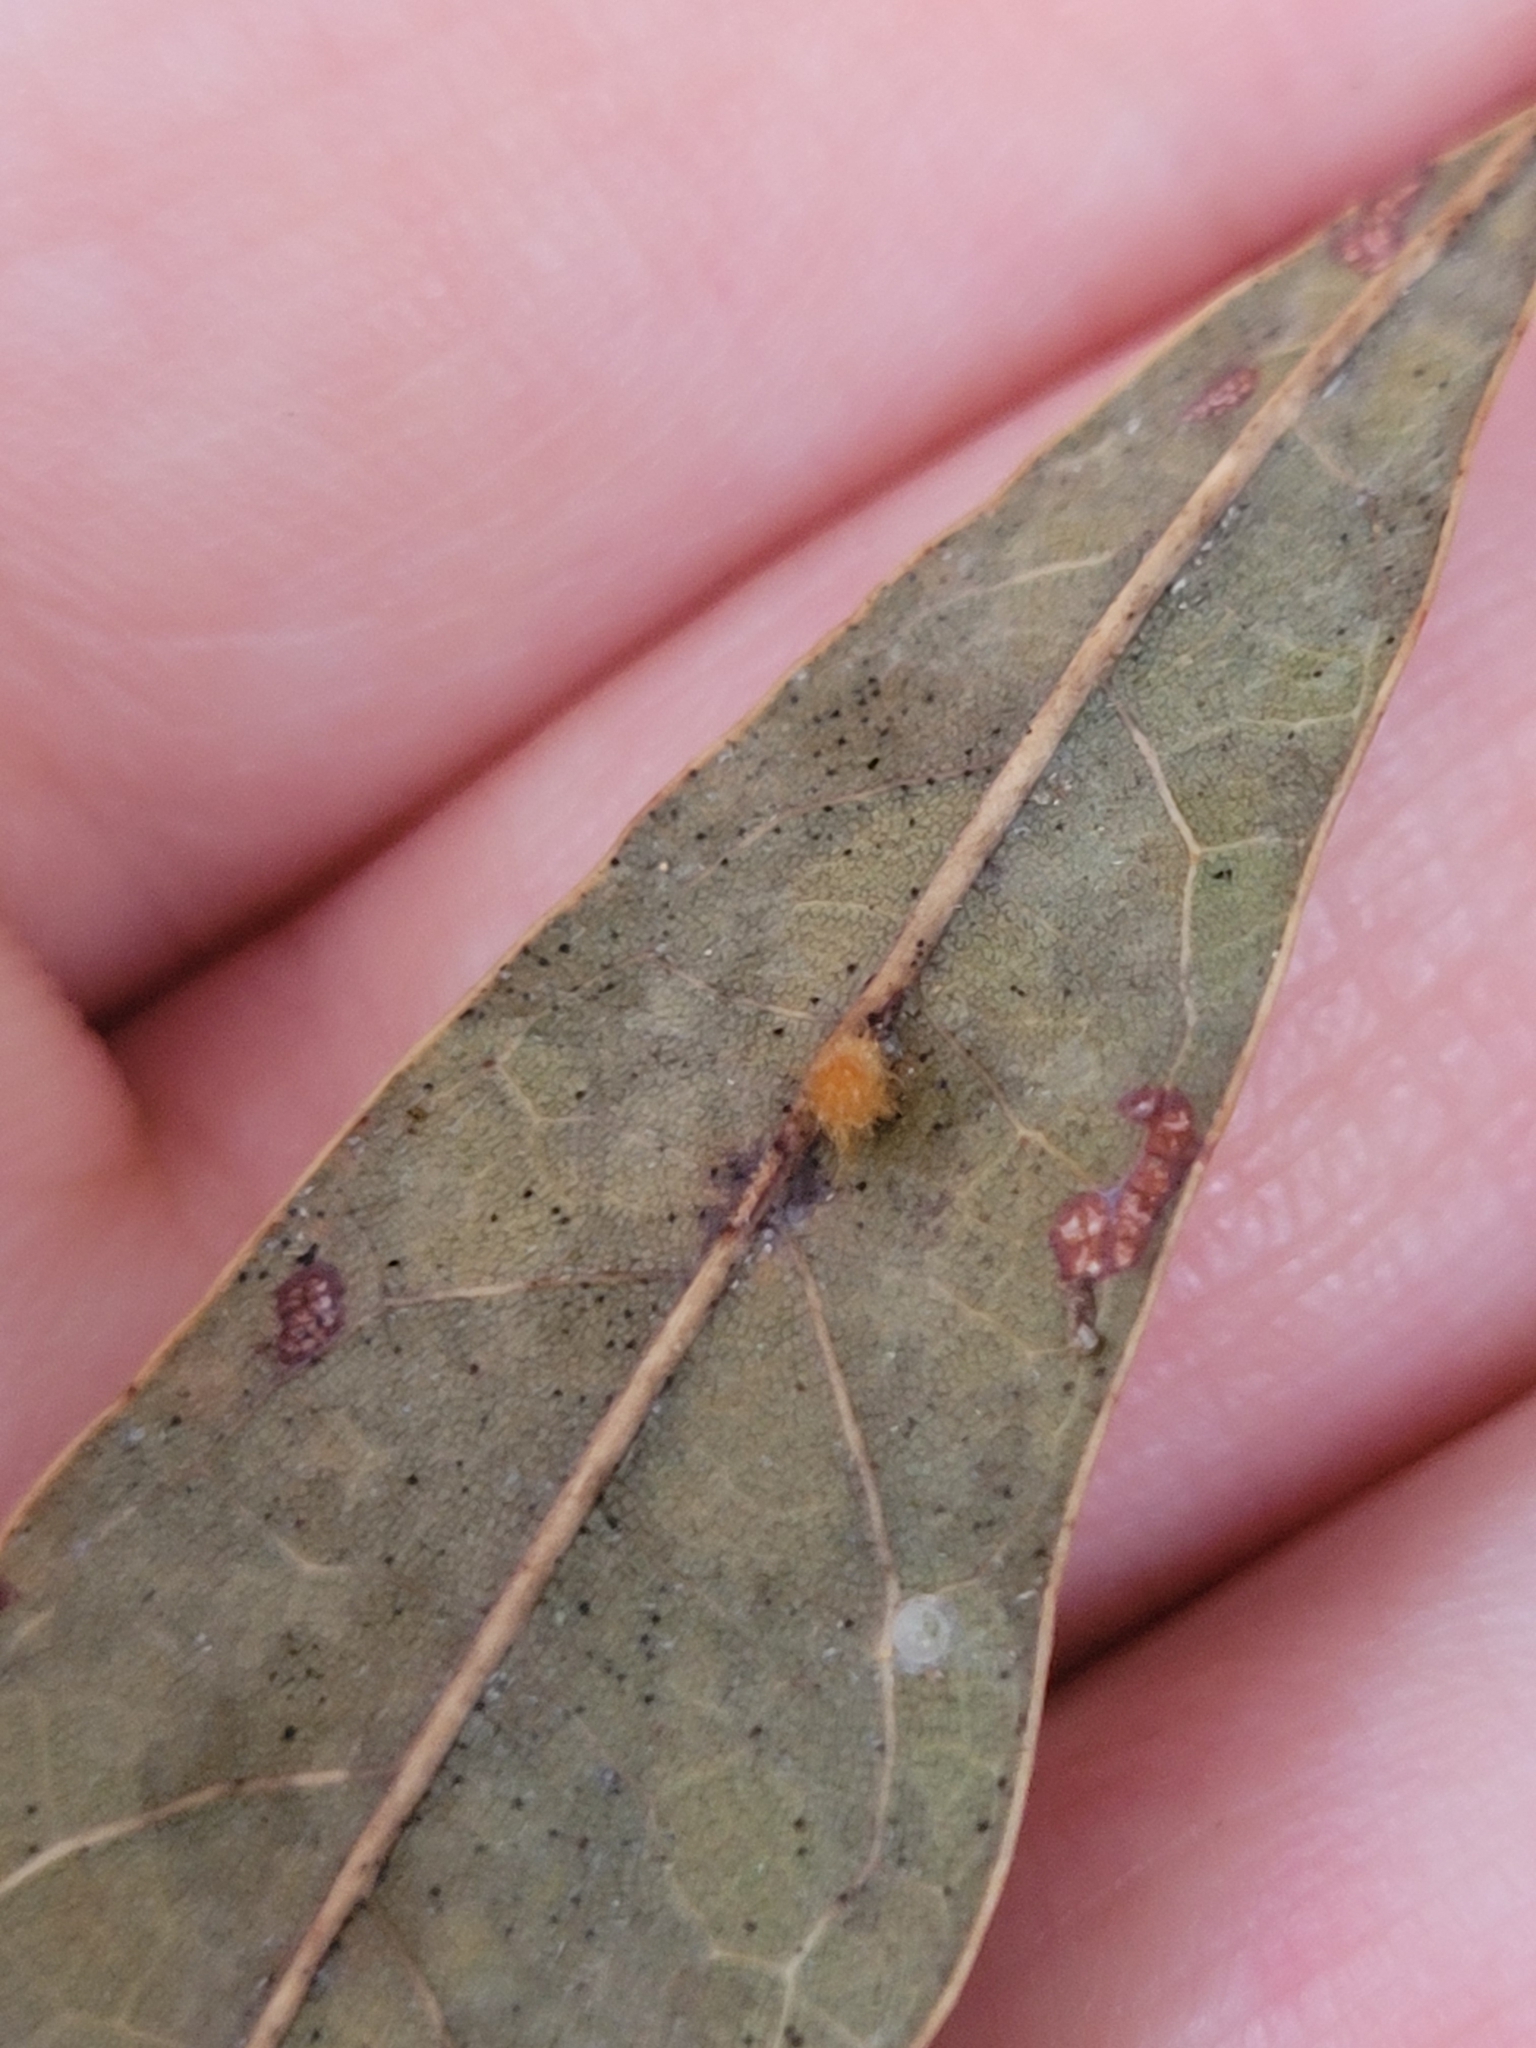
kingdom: Animalia
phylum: Arthropoda
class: Insecta
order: Hymenoptera
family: Cynipidae
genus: Andricus
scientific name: Andricus Druon pattoni
